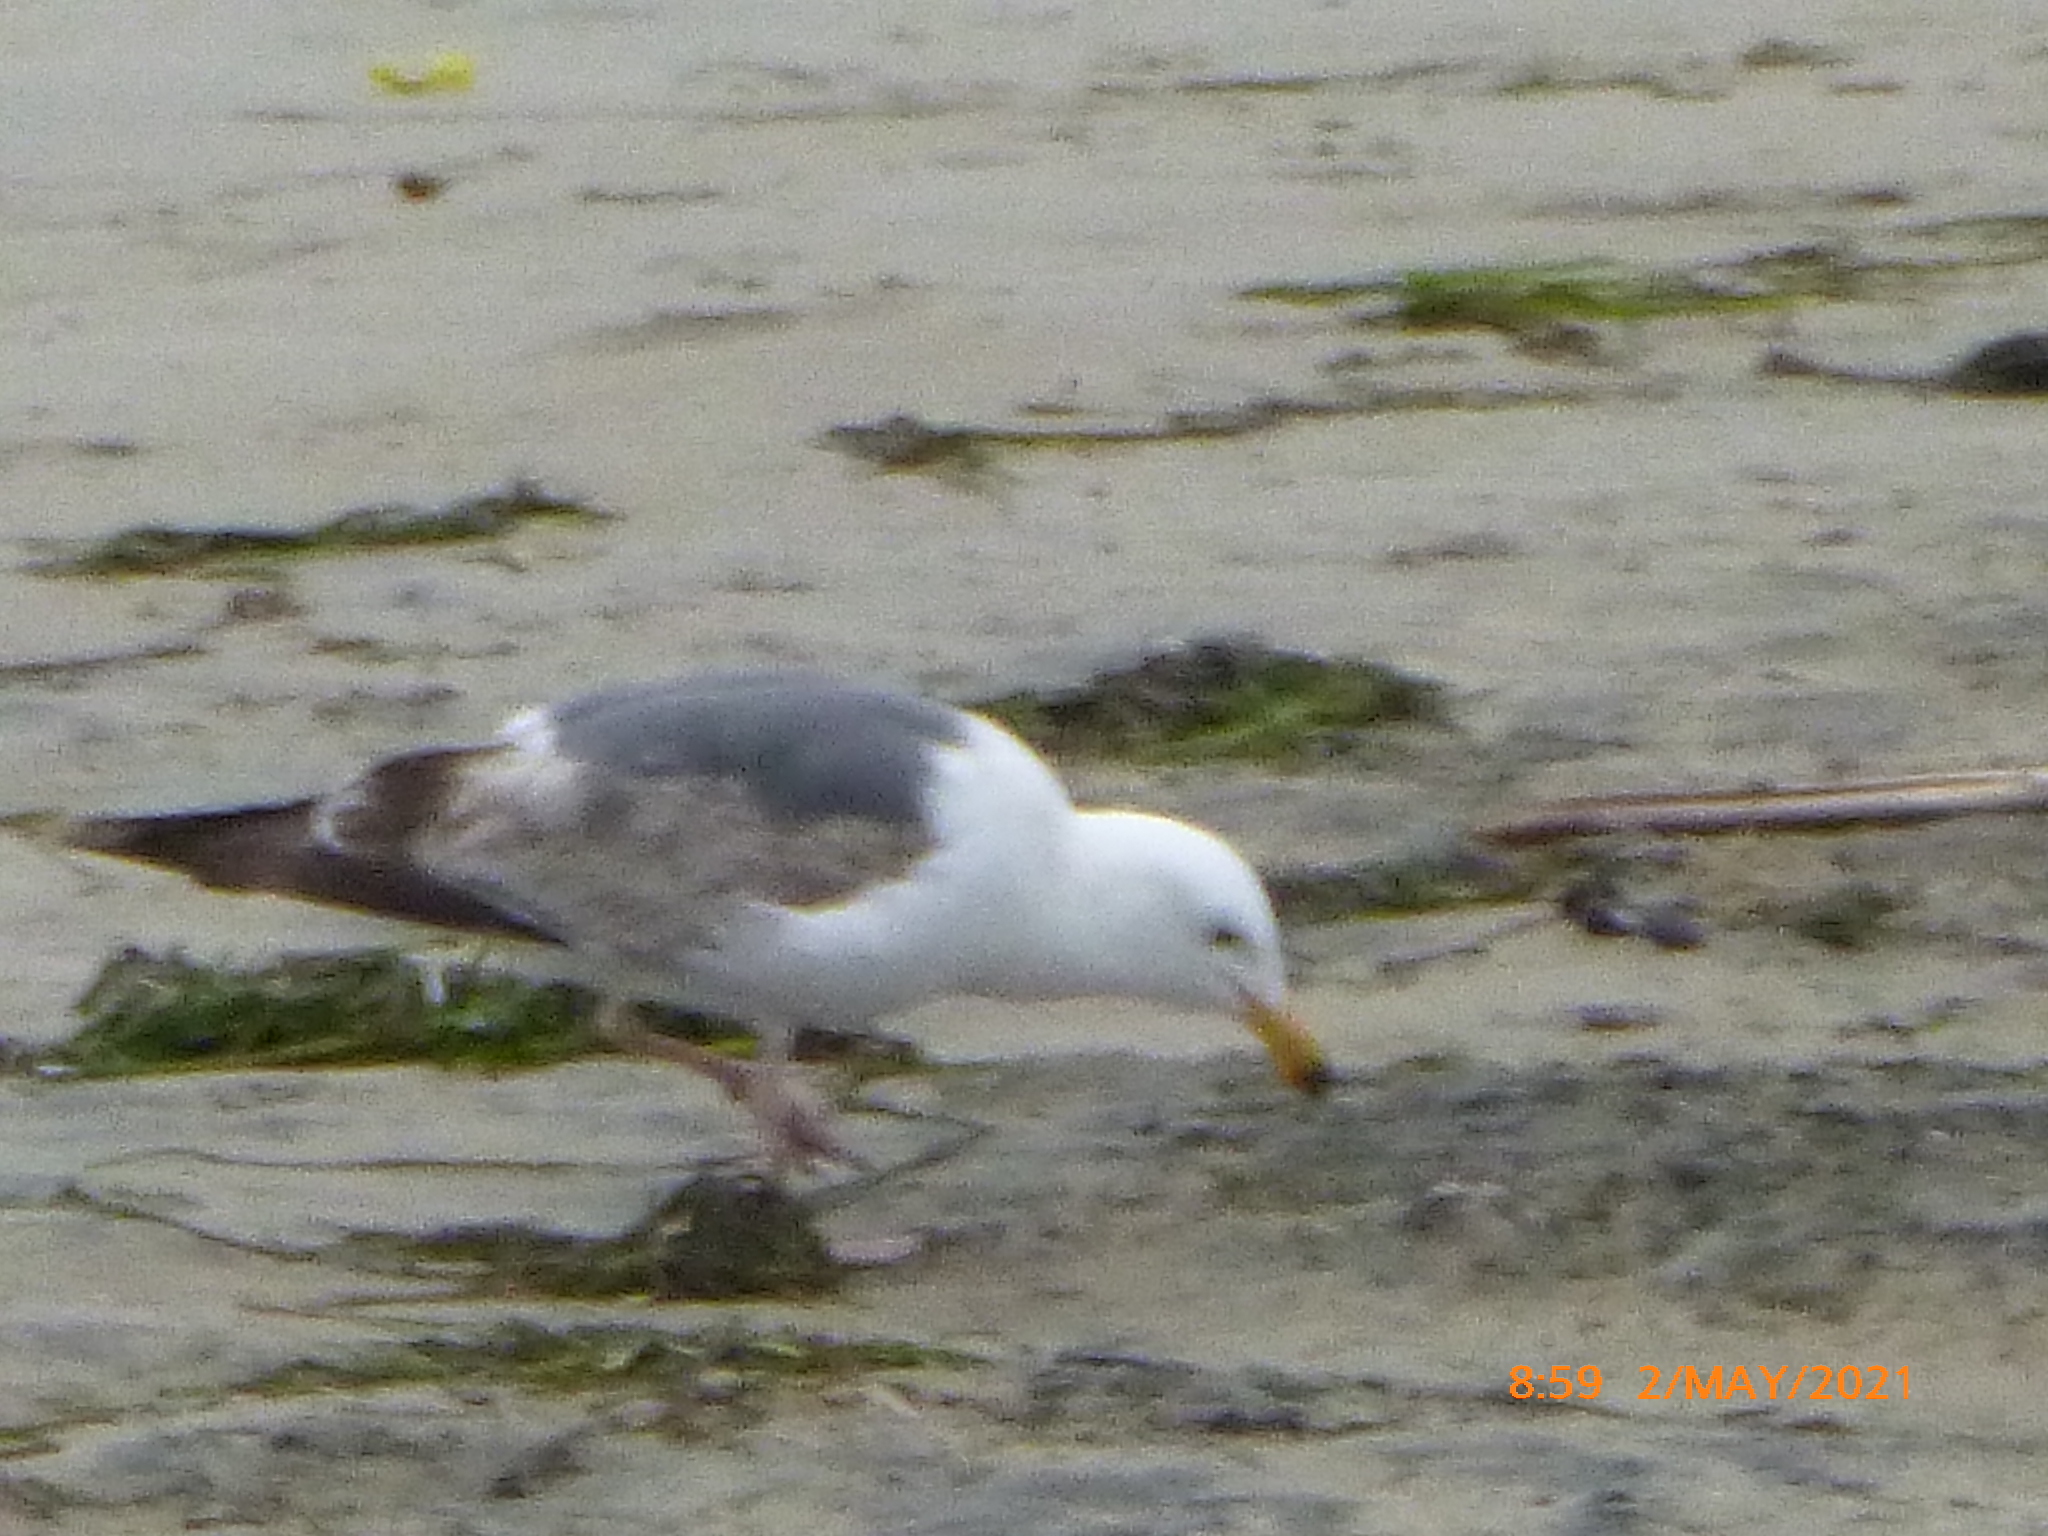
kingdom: Animalia
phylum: Chordata
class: Aves
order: Charadriiformes
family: Laridae
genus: Larus
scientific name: Larus occidentalis
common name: Western gull
